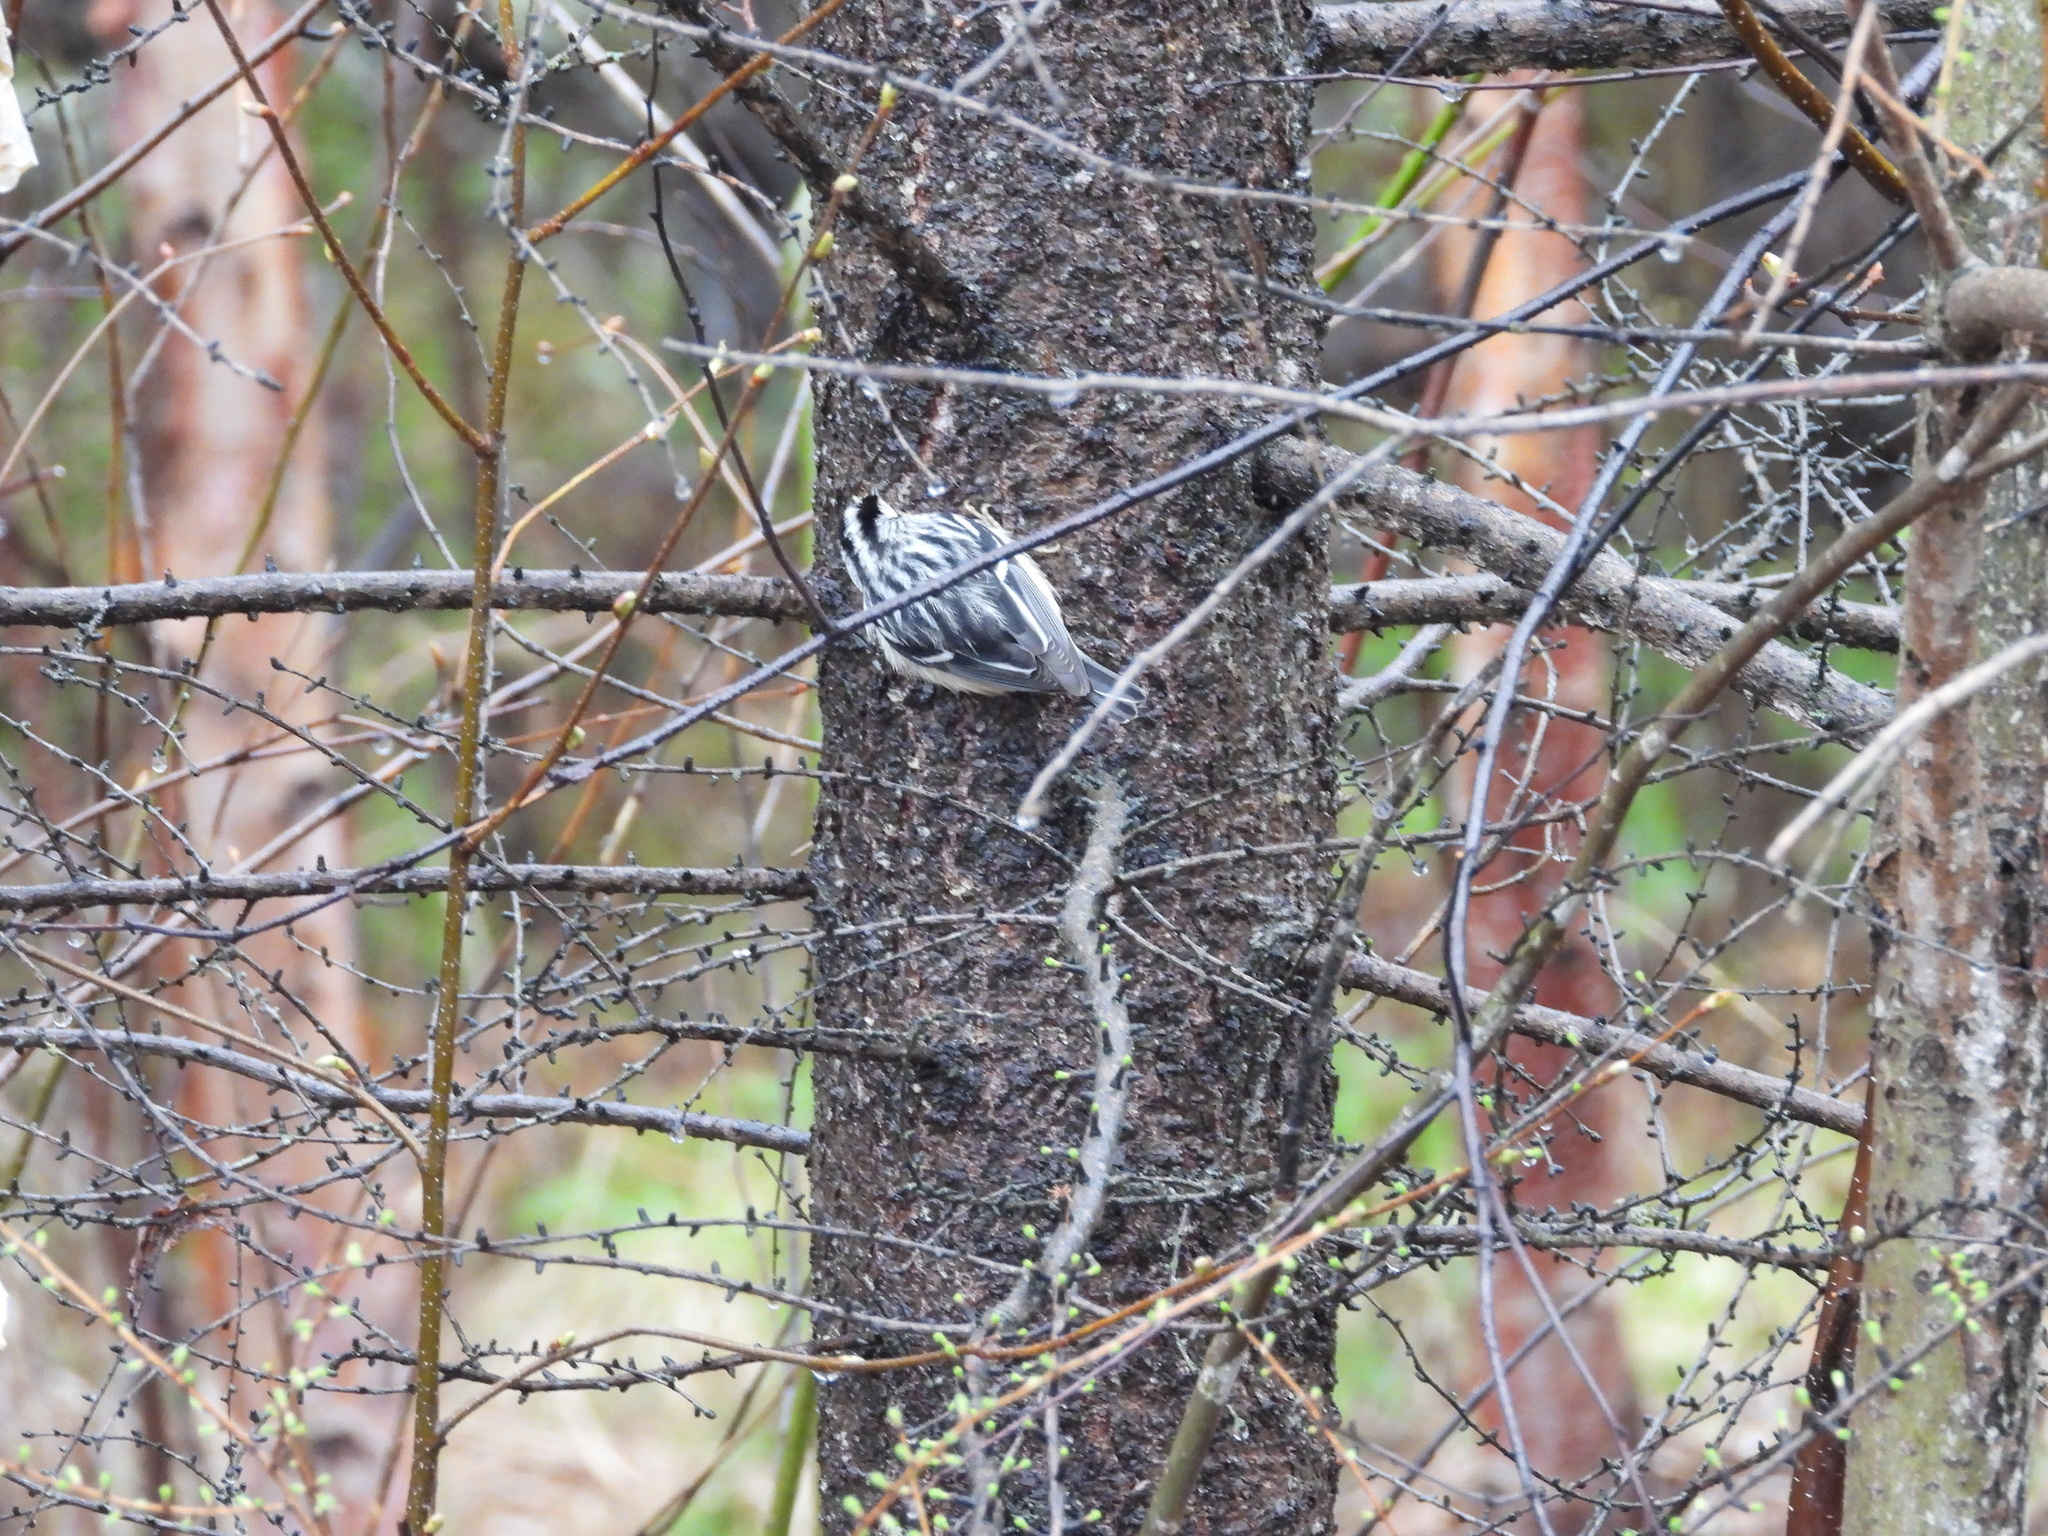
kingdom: Animalia
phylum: Chordata
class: Aves
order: Passeriformes
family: Parulidae
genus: Mniotilta
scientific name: Mniotilta varia
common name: Black-and-white warbler
